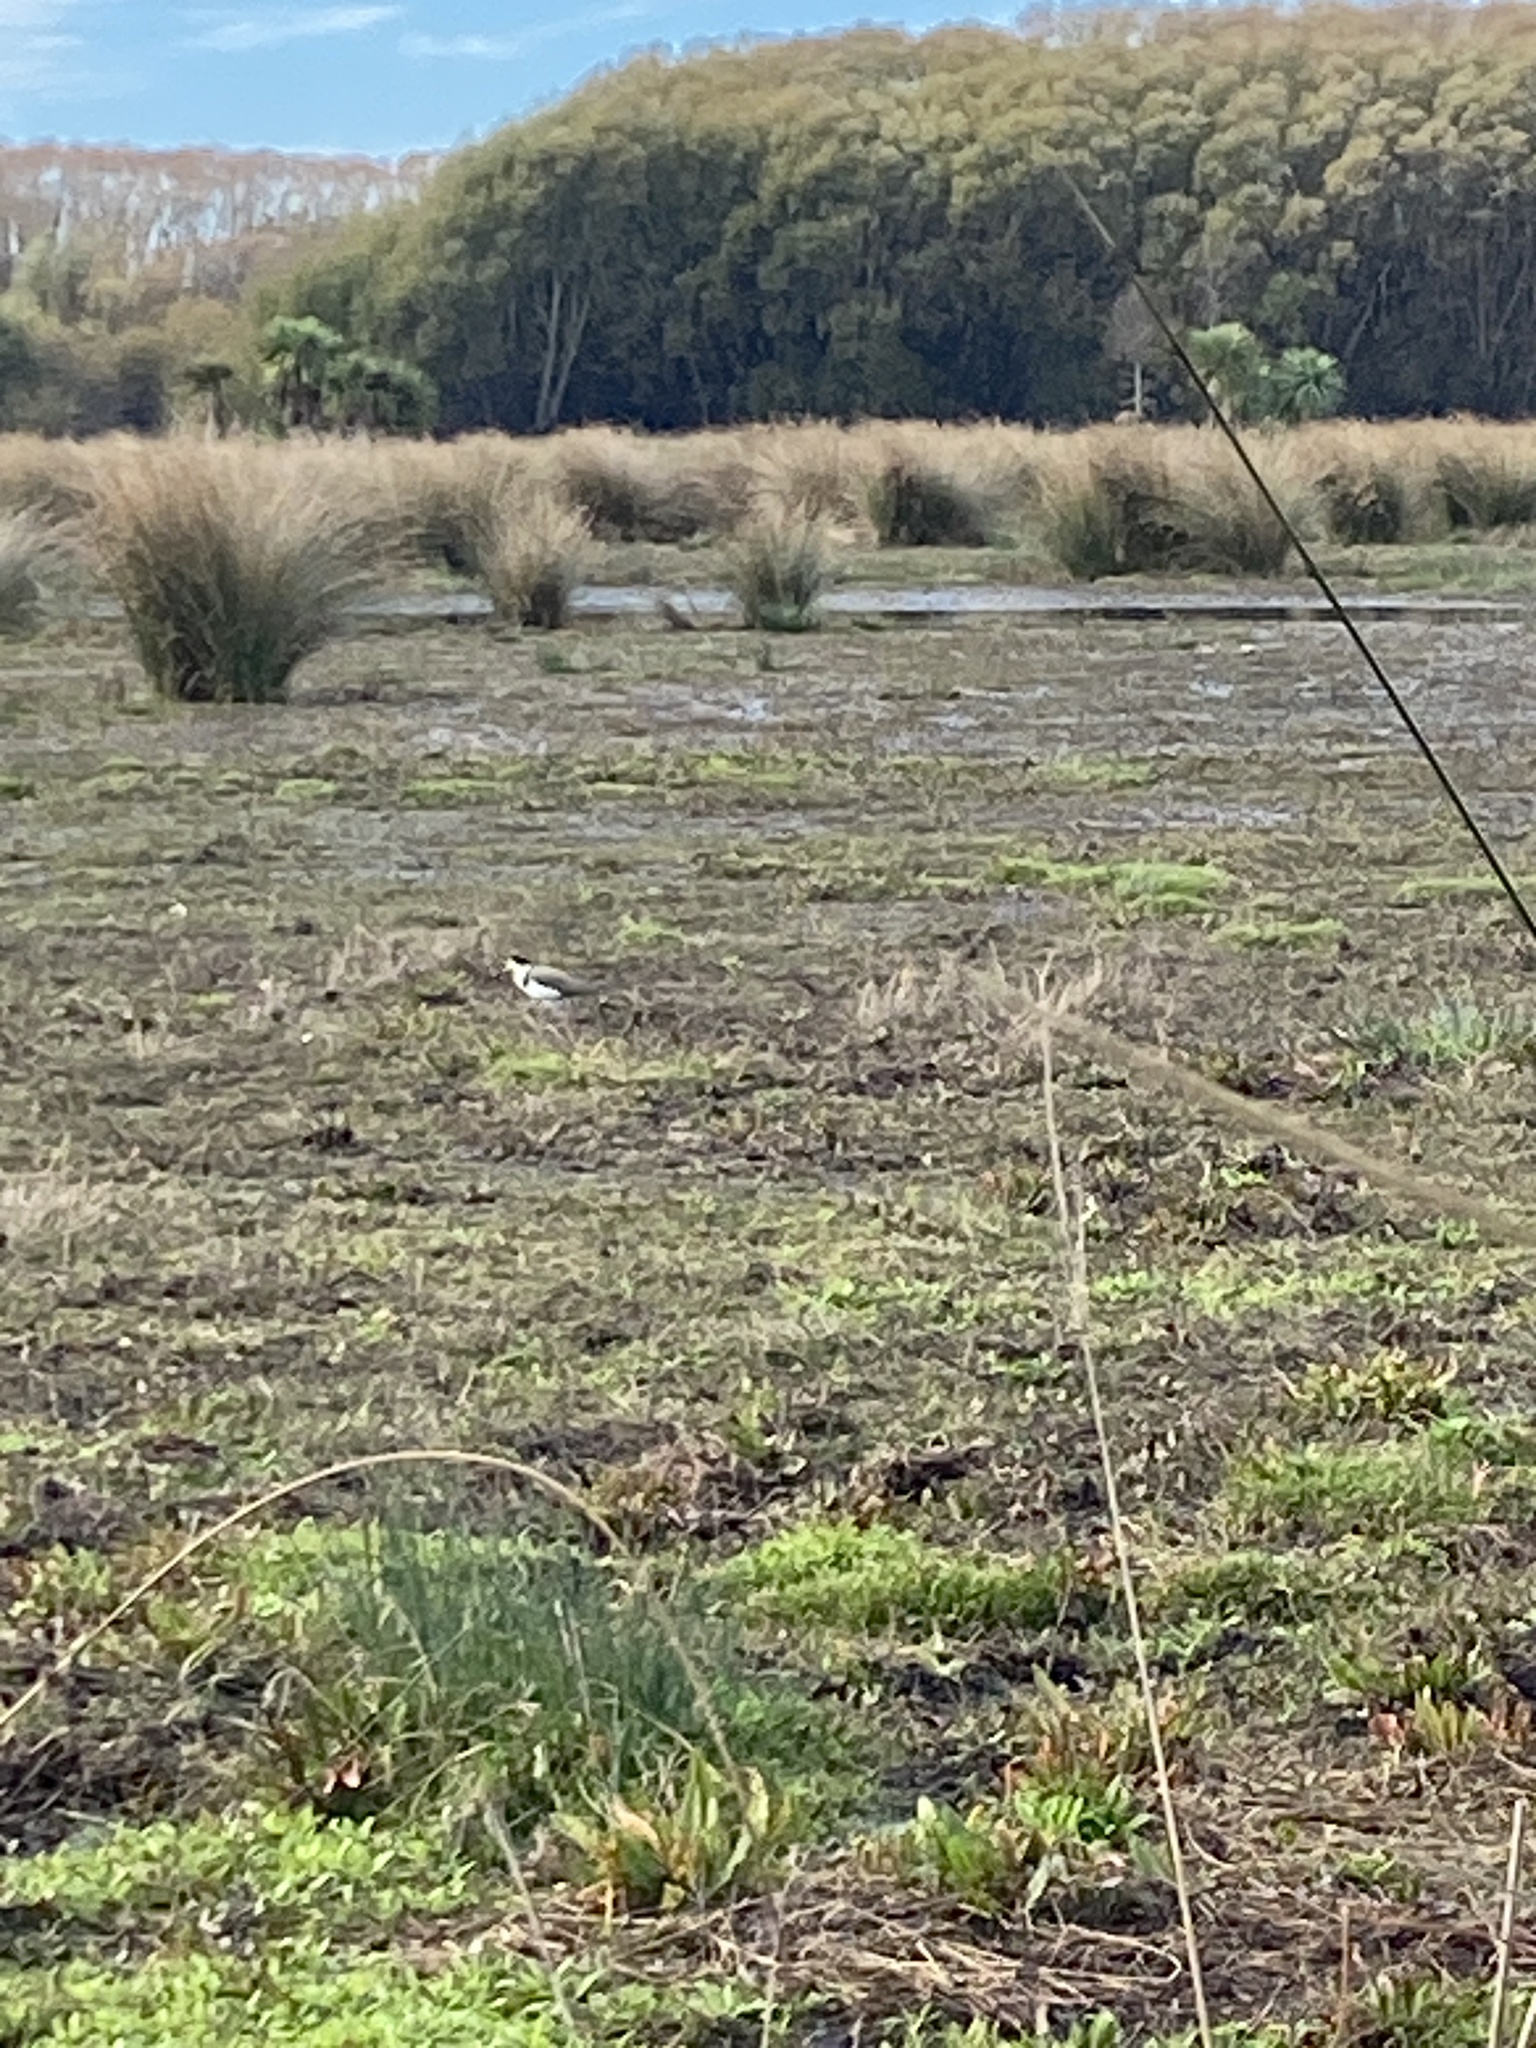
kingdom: Animalia
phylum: Chordata
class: Aves
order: Charadriiformes
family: Charadriidae
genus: Vanellus
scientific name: Vanellus miles
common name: Masked lapwing
